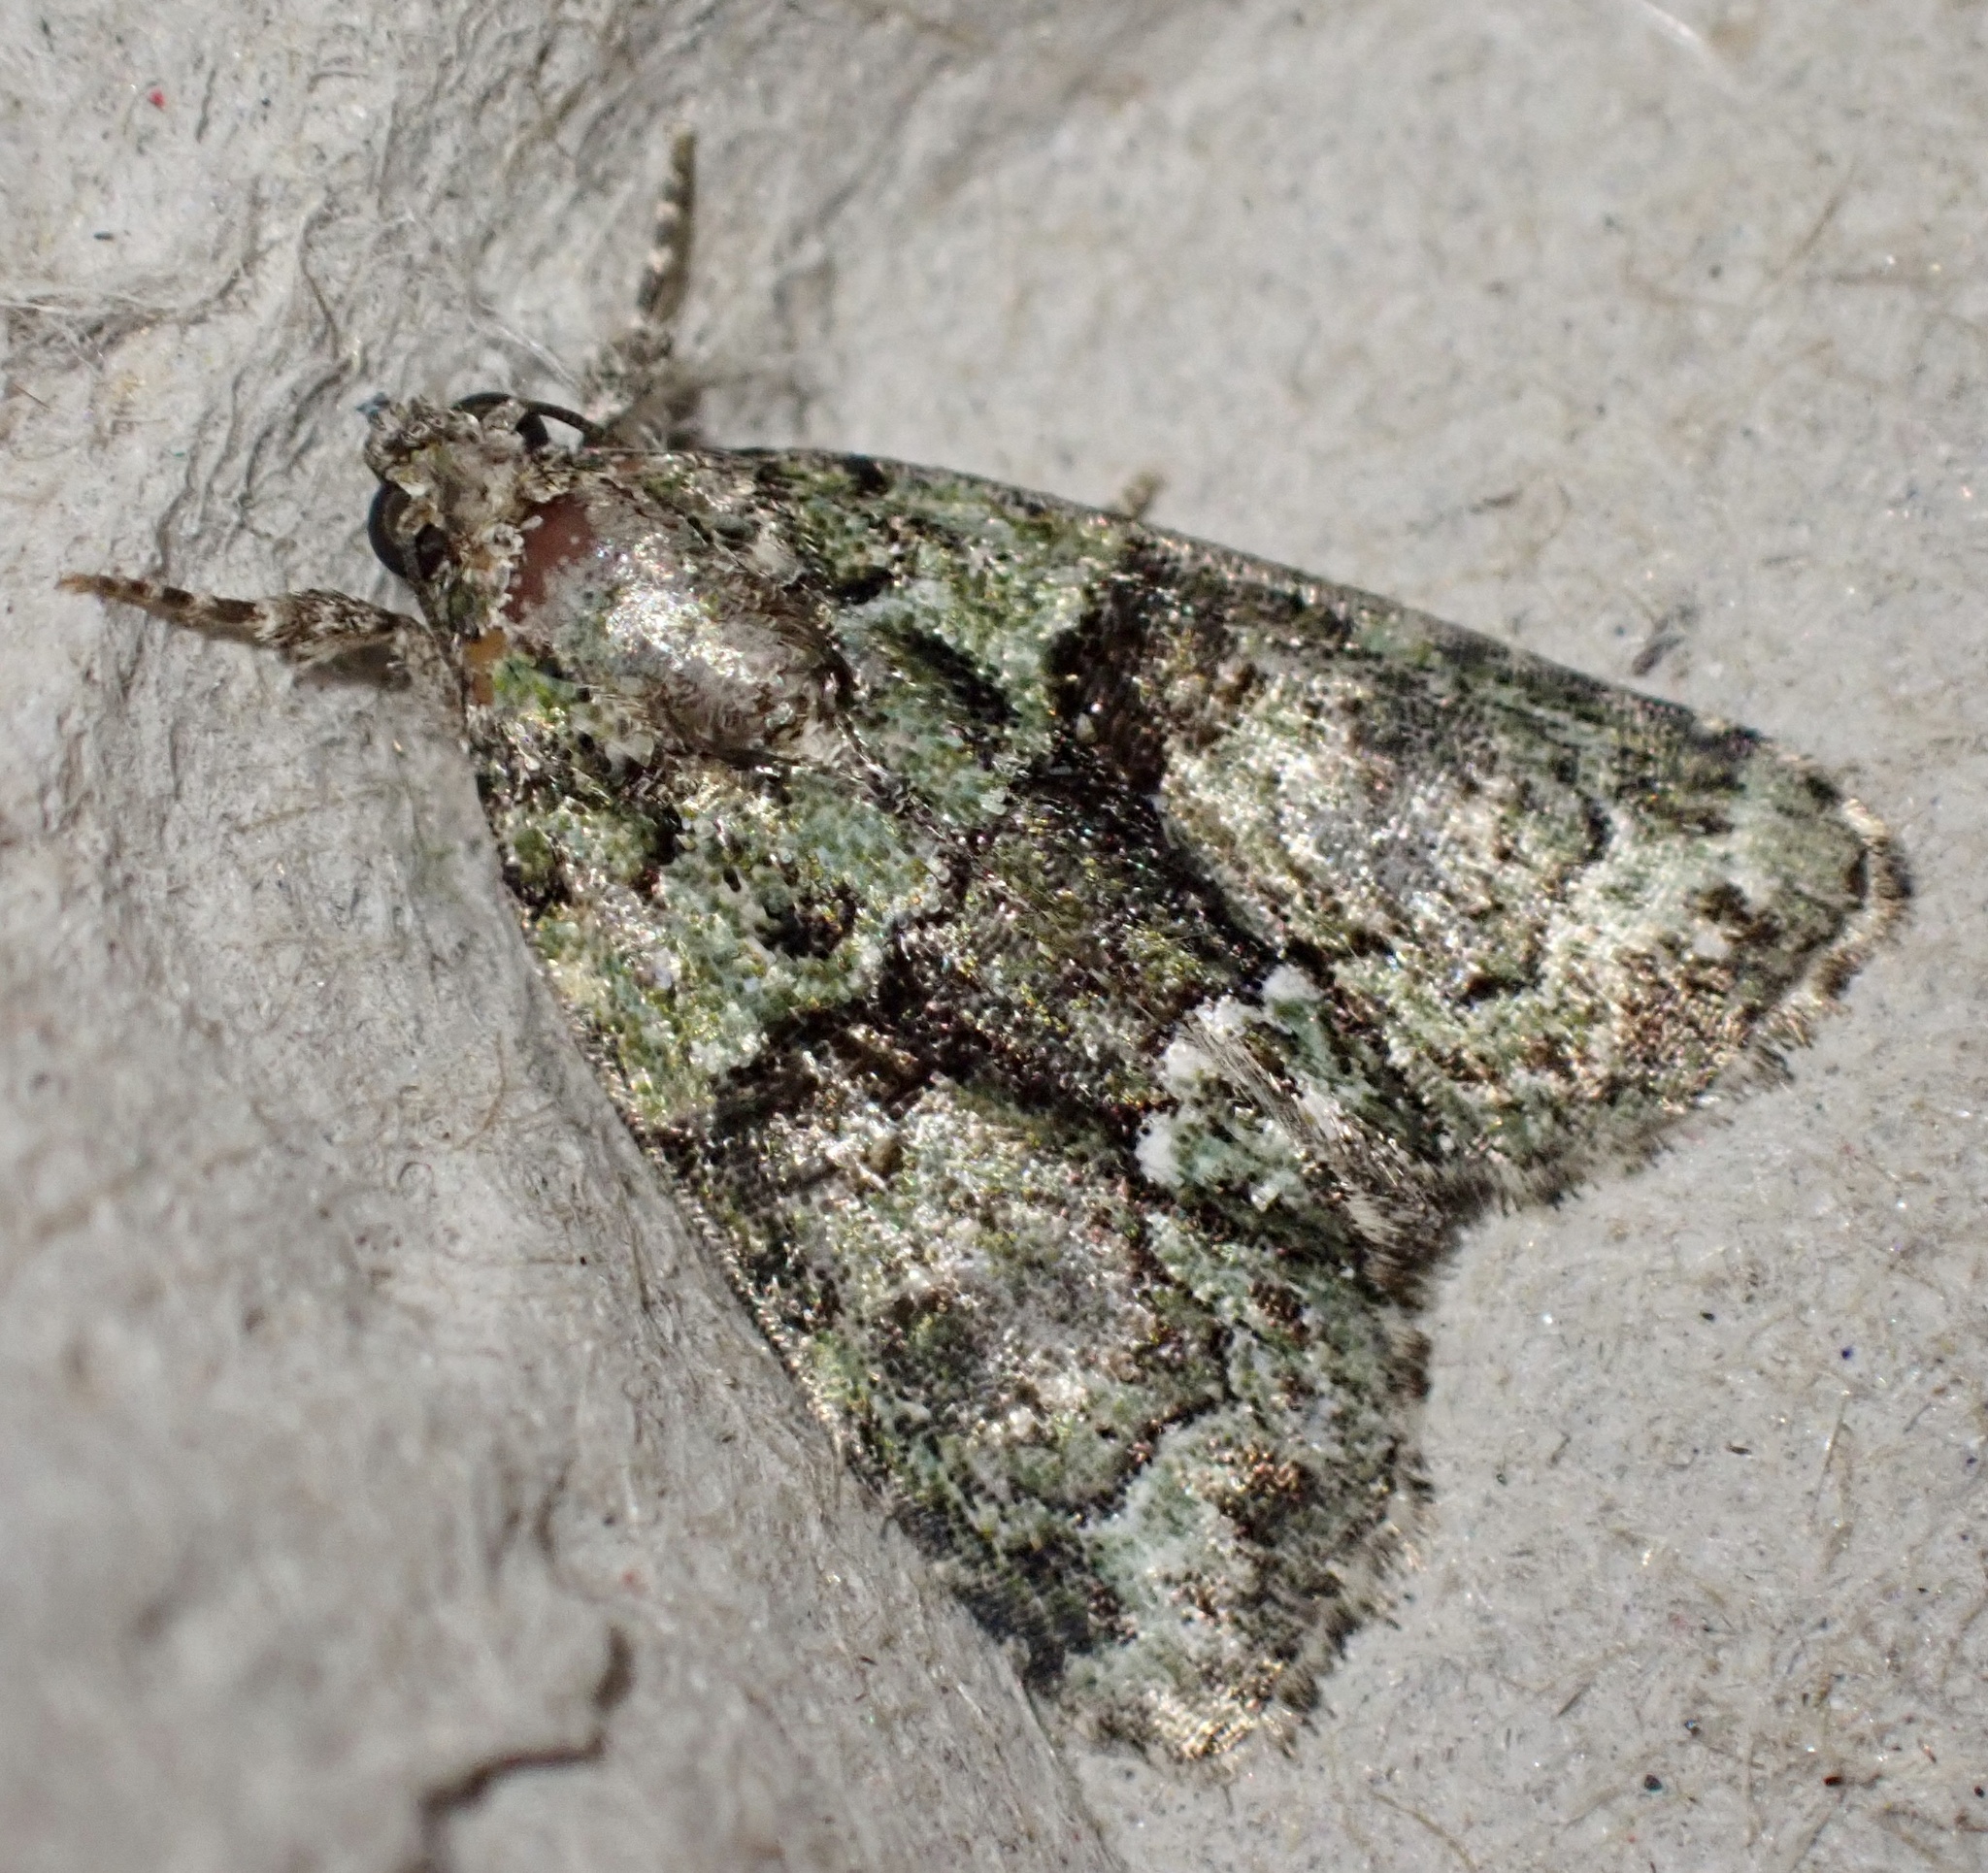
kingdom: Animalia
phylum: Arthropoda
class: Insecta
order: Lepidoptera
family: Noctuidae
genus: Cryphia
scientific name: Cryphia algae
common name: Tree-lichen beauty
